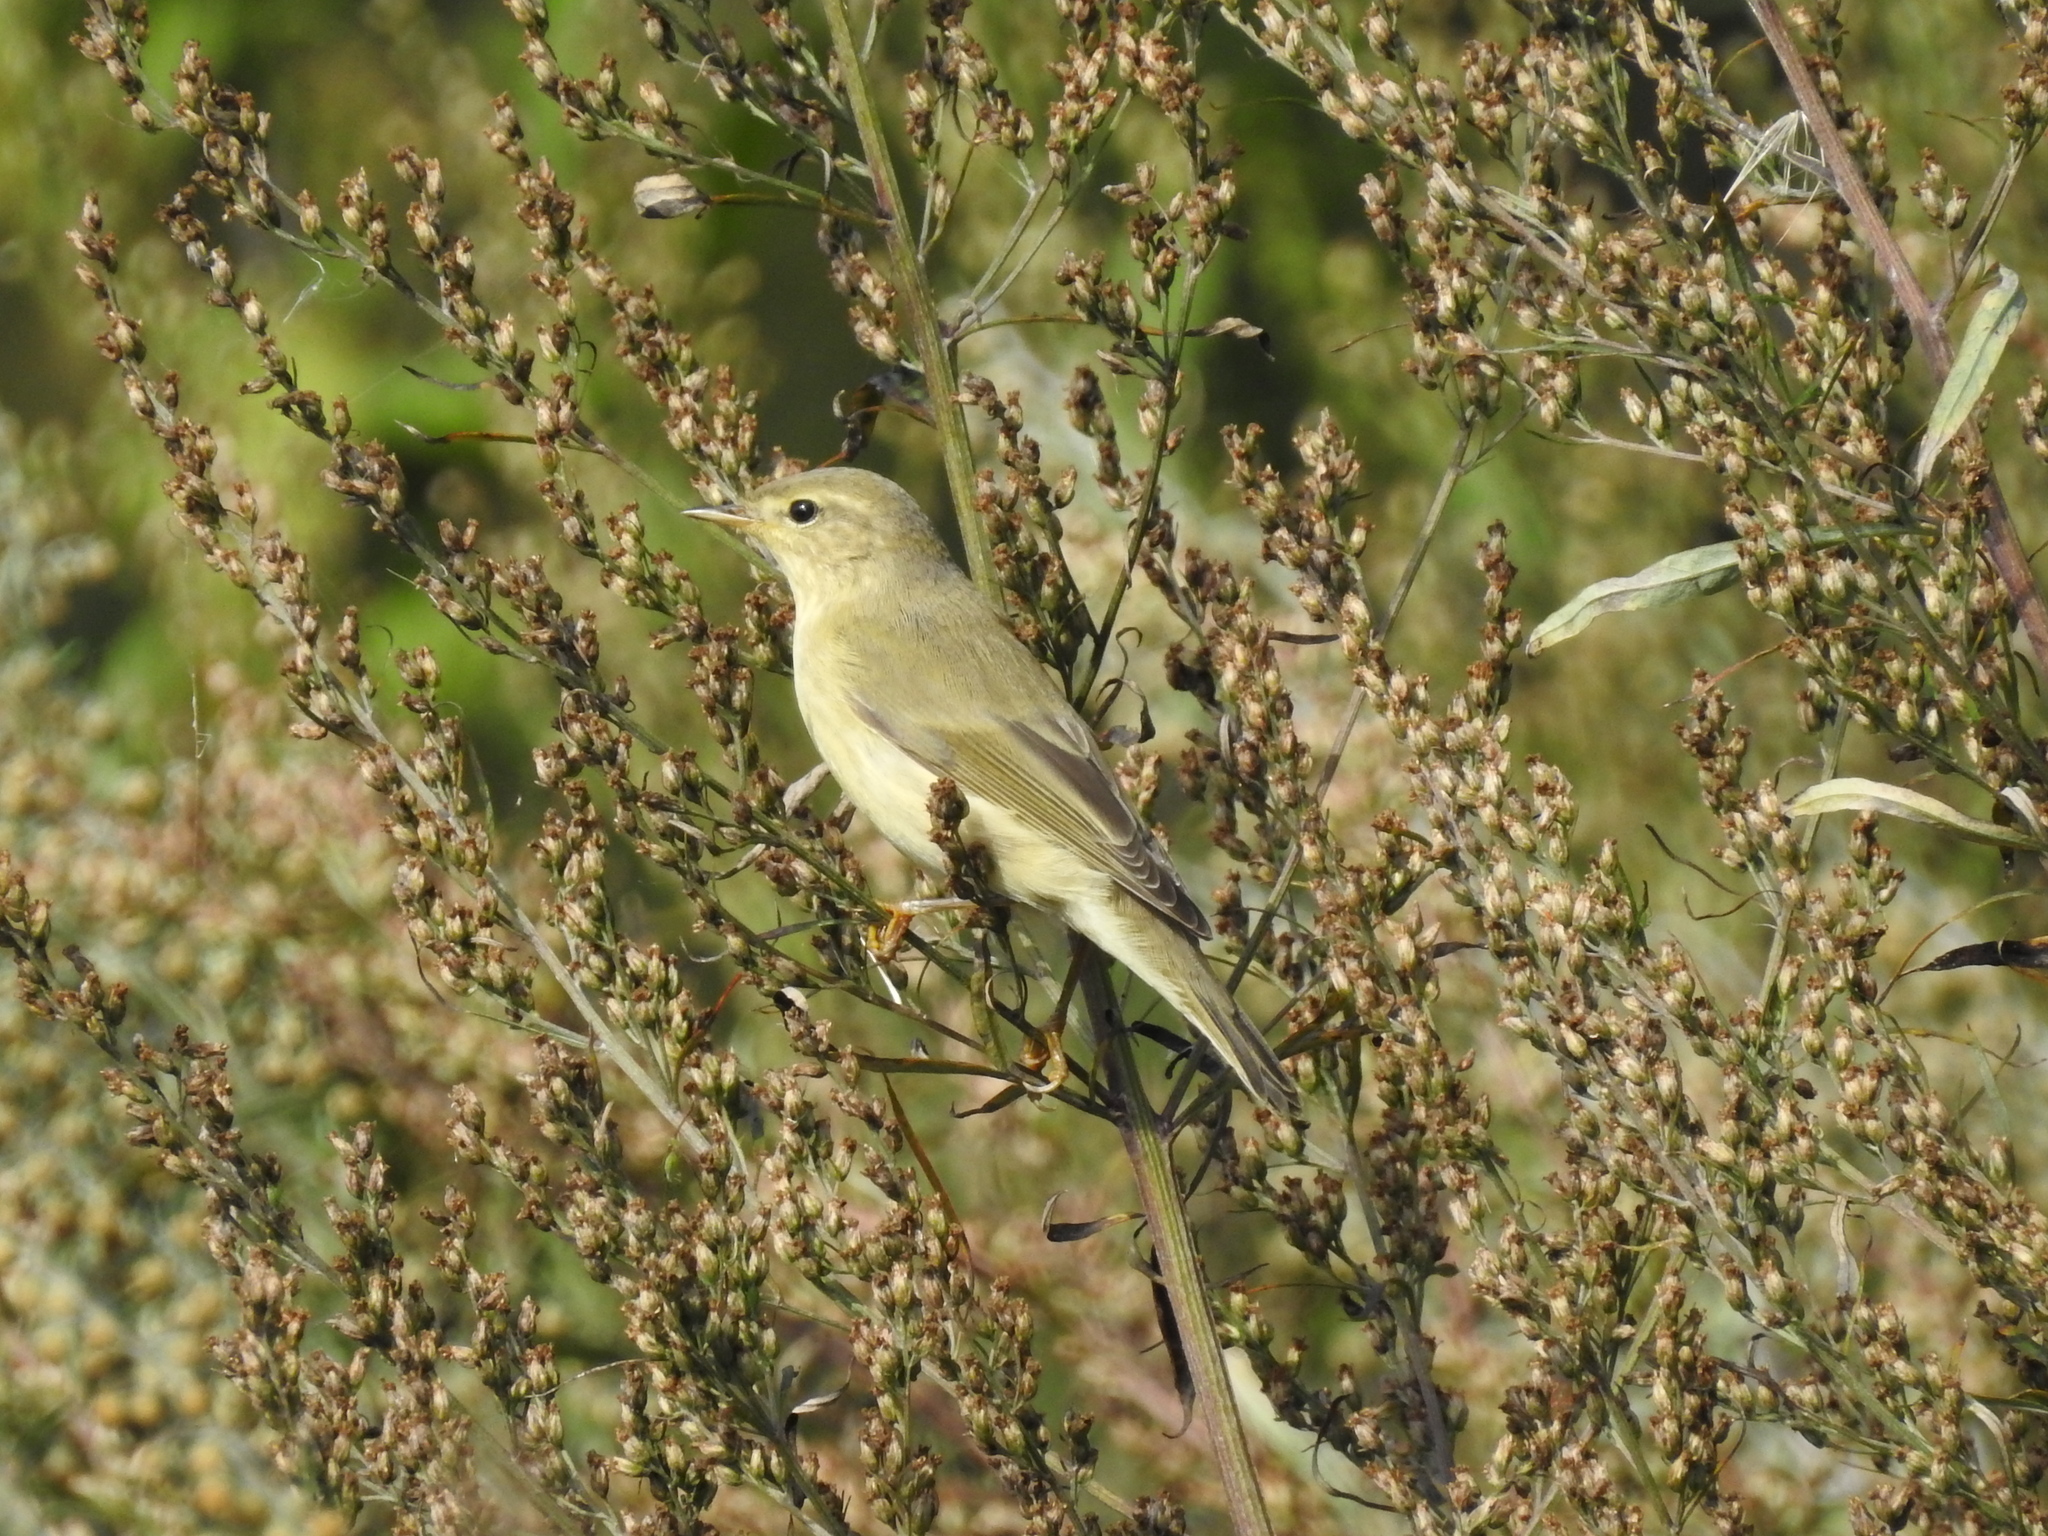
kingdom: Animalia
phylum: Chordata
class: Aves
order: Passeriformes
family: Phylloscopidae
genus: Phylloscopus
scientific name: Phylloscopus trochilus
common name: Willow warbler
